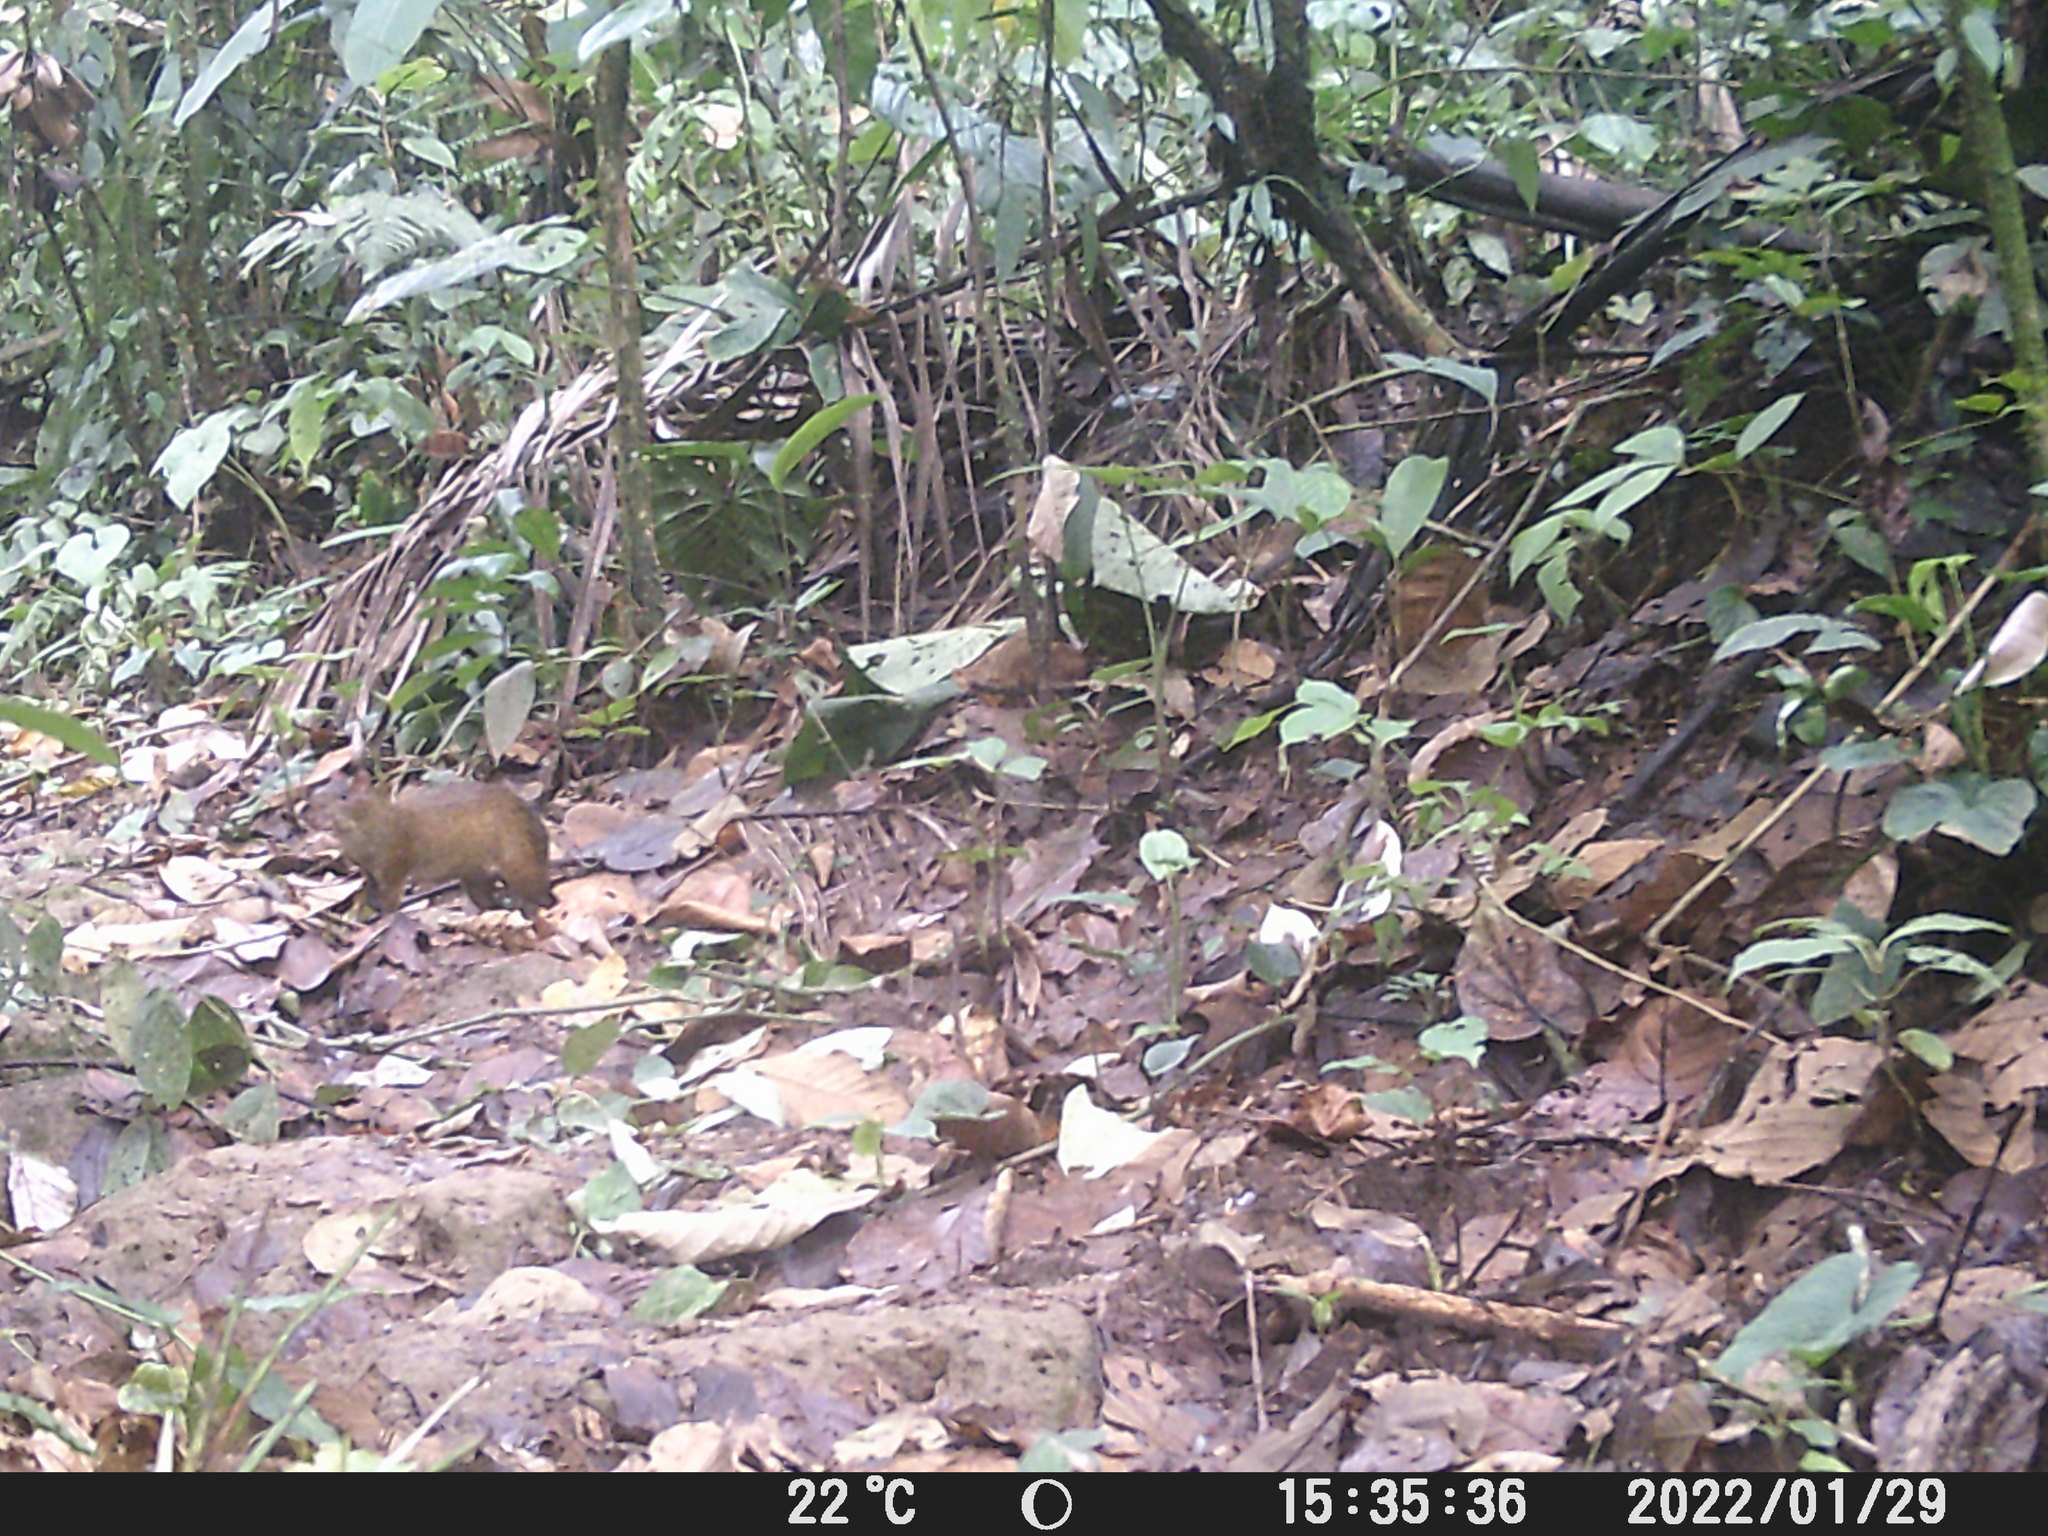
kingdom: Animalia
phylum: Chordata
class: Mammalia
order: Rodentia
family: Dasyproctidae
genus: Dasyprocta
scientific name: Dasyprocta punctata
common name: Central american agouti
